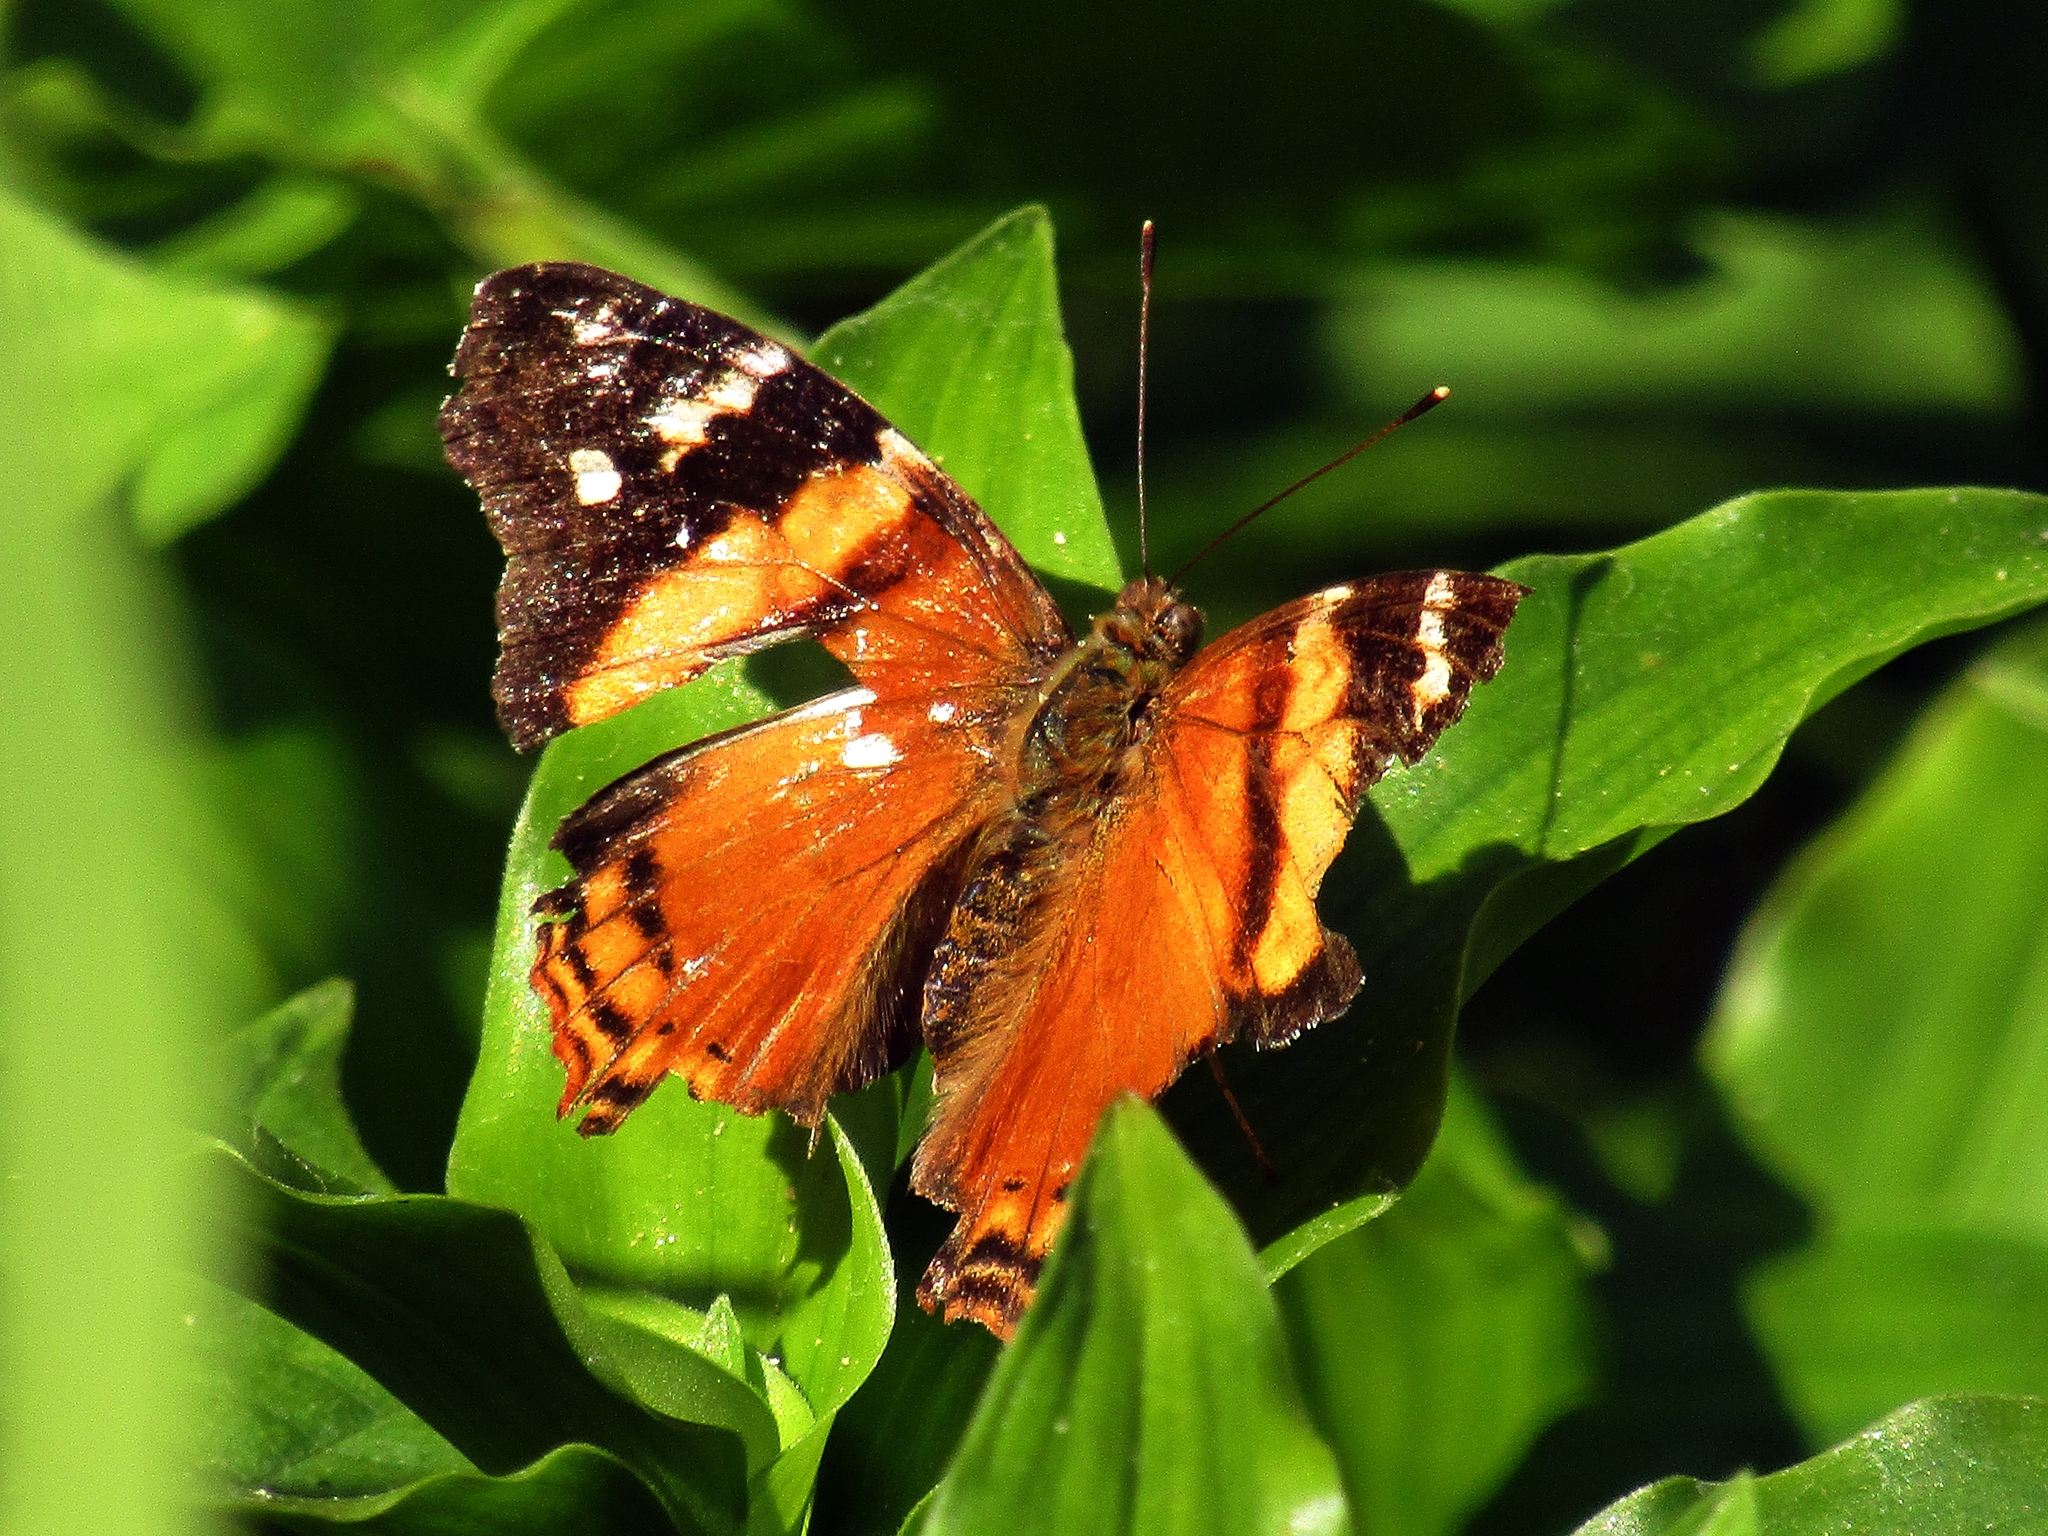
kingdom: Animalia
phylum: Arthropoda
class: Insecta
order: Lepidoptera
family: Nymphalidae
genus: Hypanartia
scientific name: Hypanartia bella
